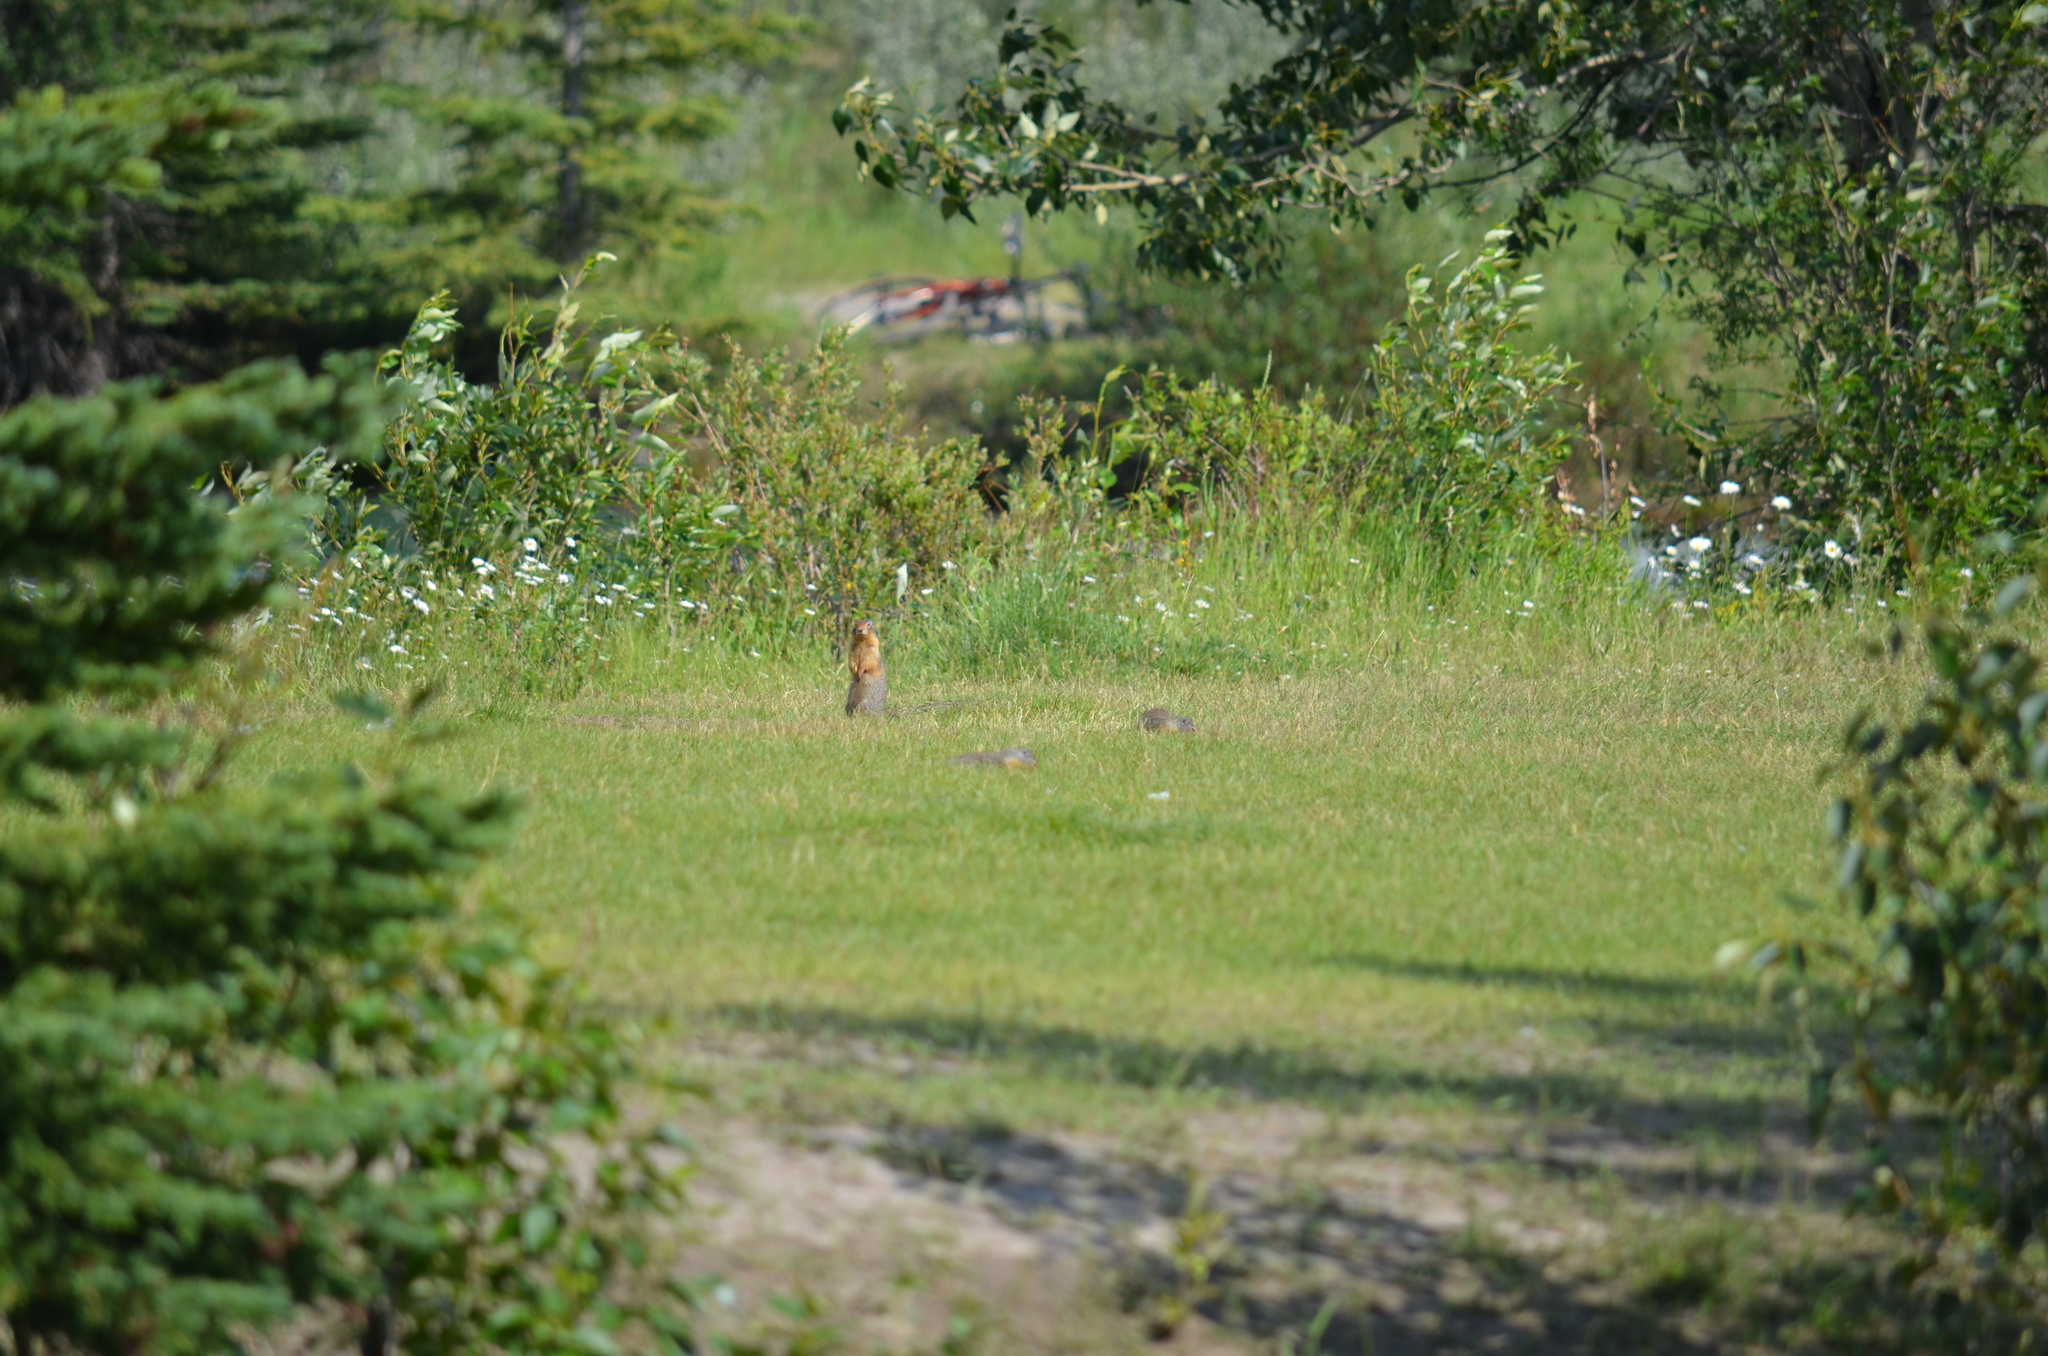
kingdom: Animalia
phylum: Chordata
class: Mammalia
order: Rodentia
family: Sciuridae
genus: Urocitellus
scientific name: Urocitellus columbianus
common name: Columbian ground squirrel
